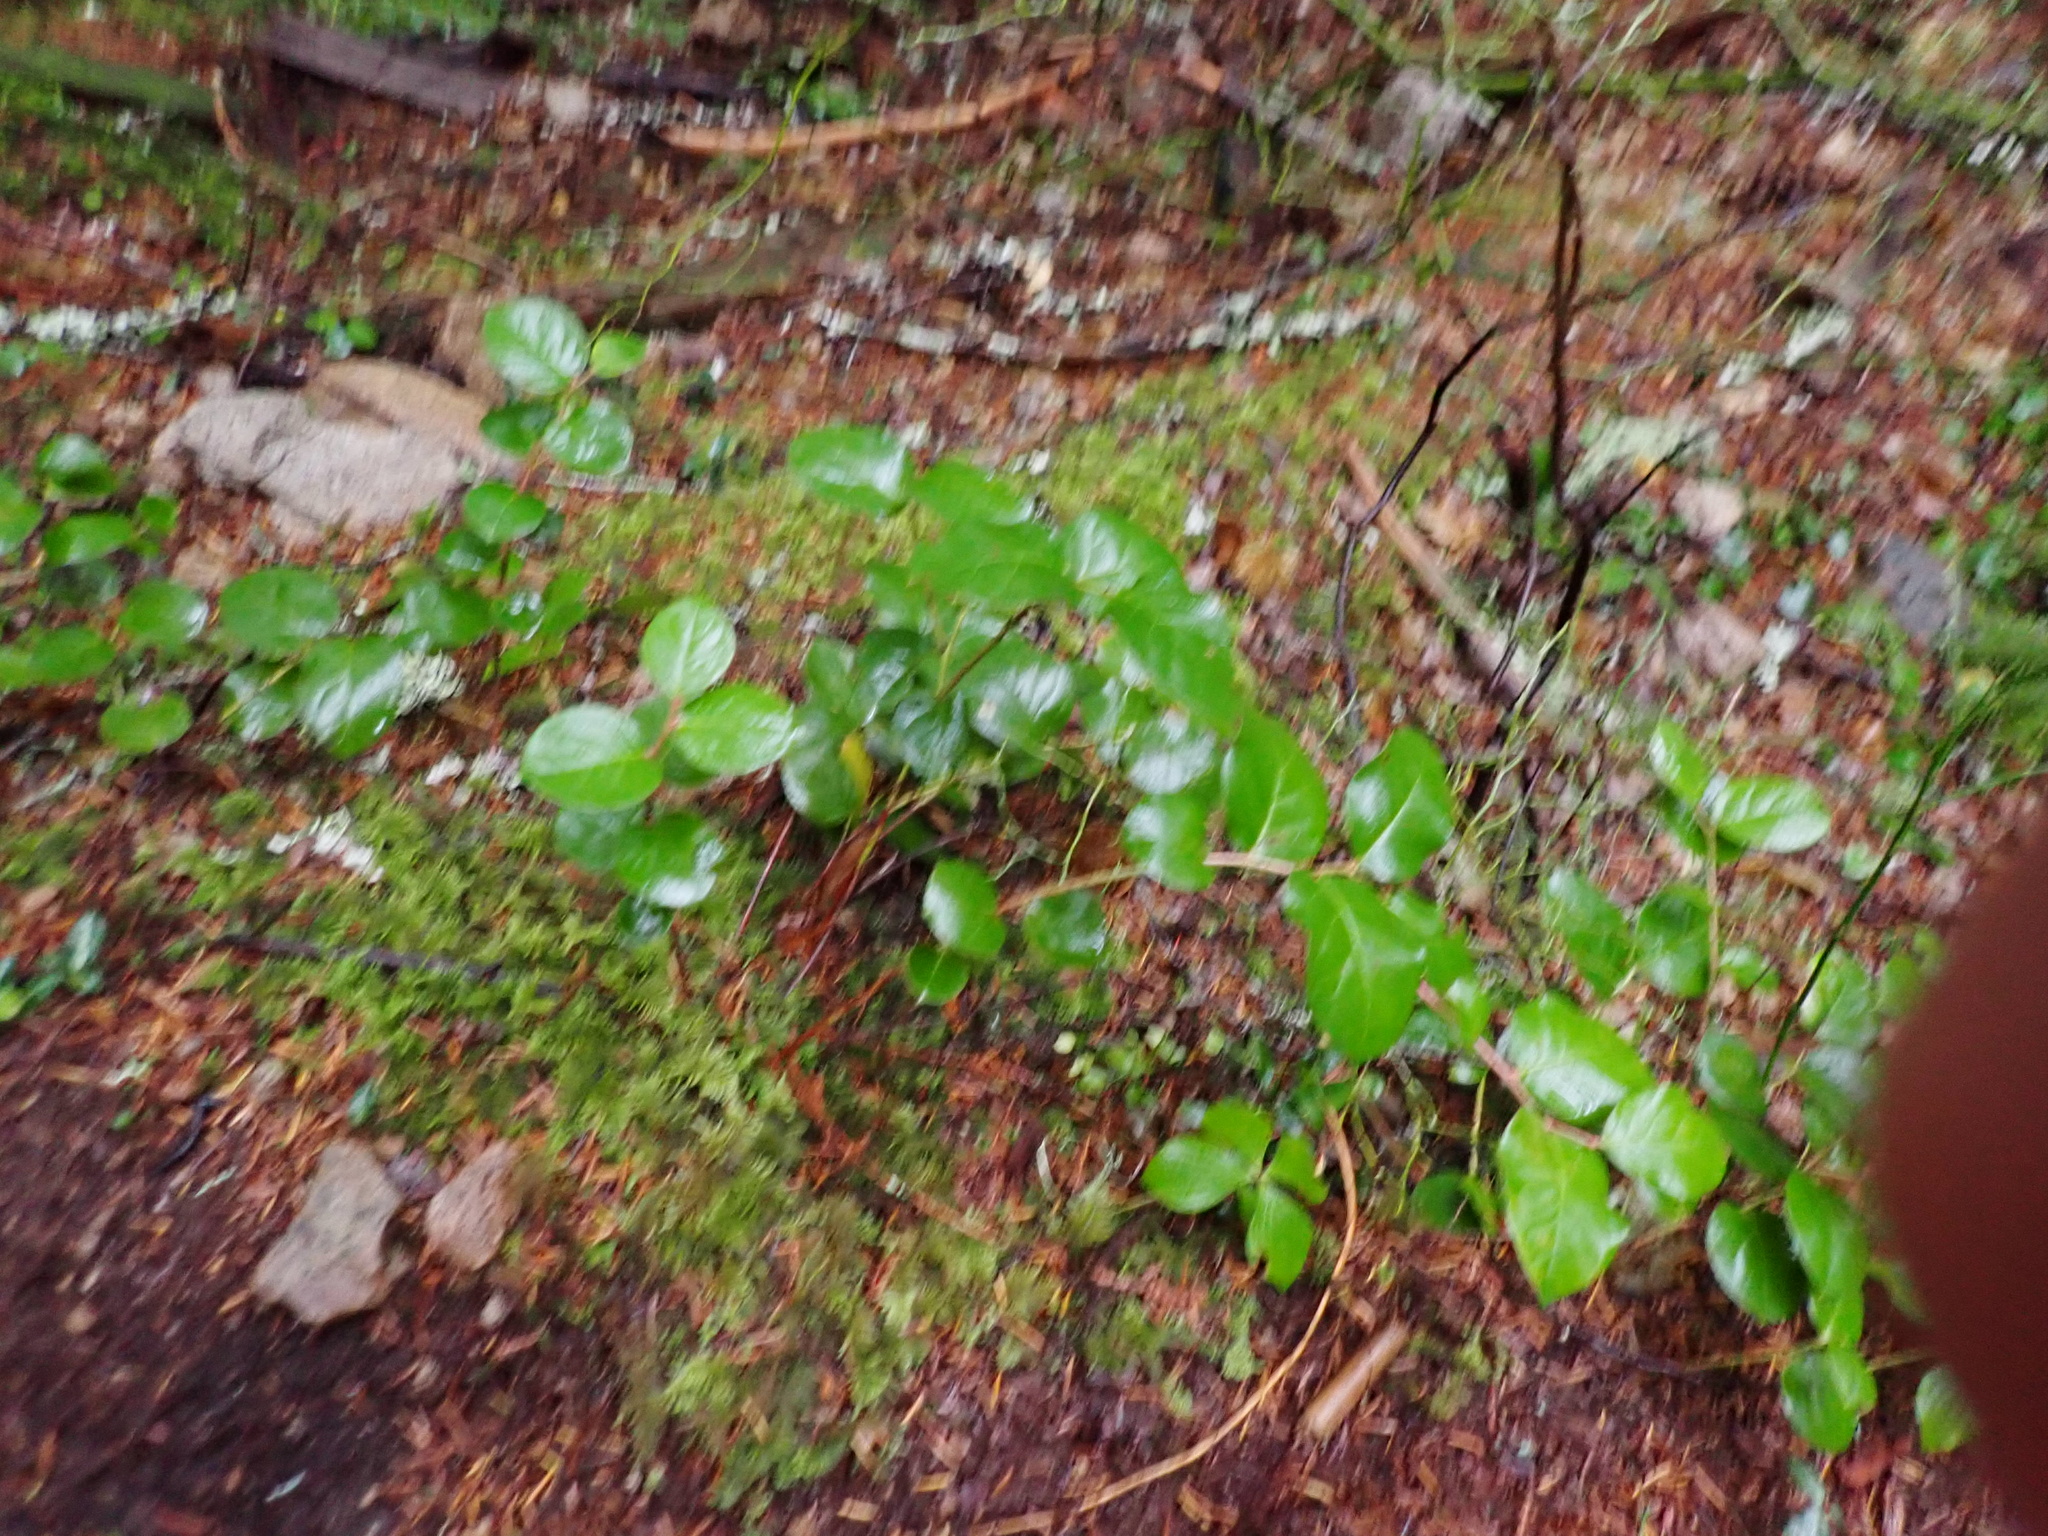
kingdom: Plantae
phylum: Tracheophyta
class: Magnoliopsida
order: Ericales
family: Ericaceae
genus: Gaultheria
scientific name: Gaultheria shallon
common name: Shallon
